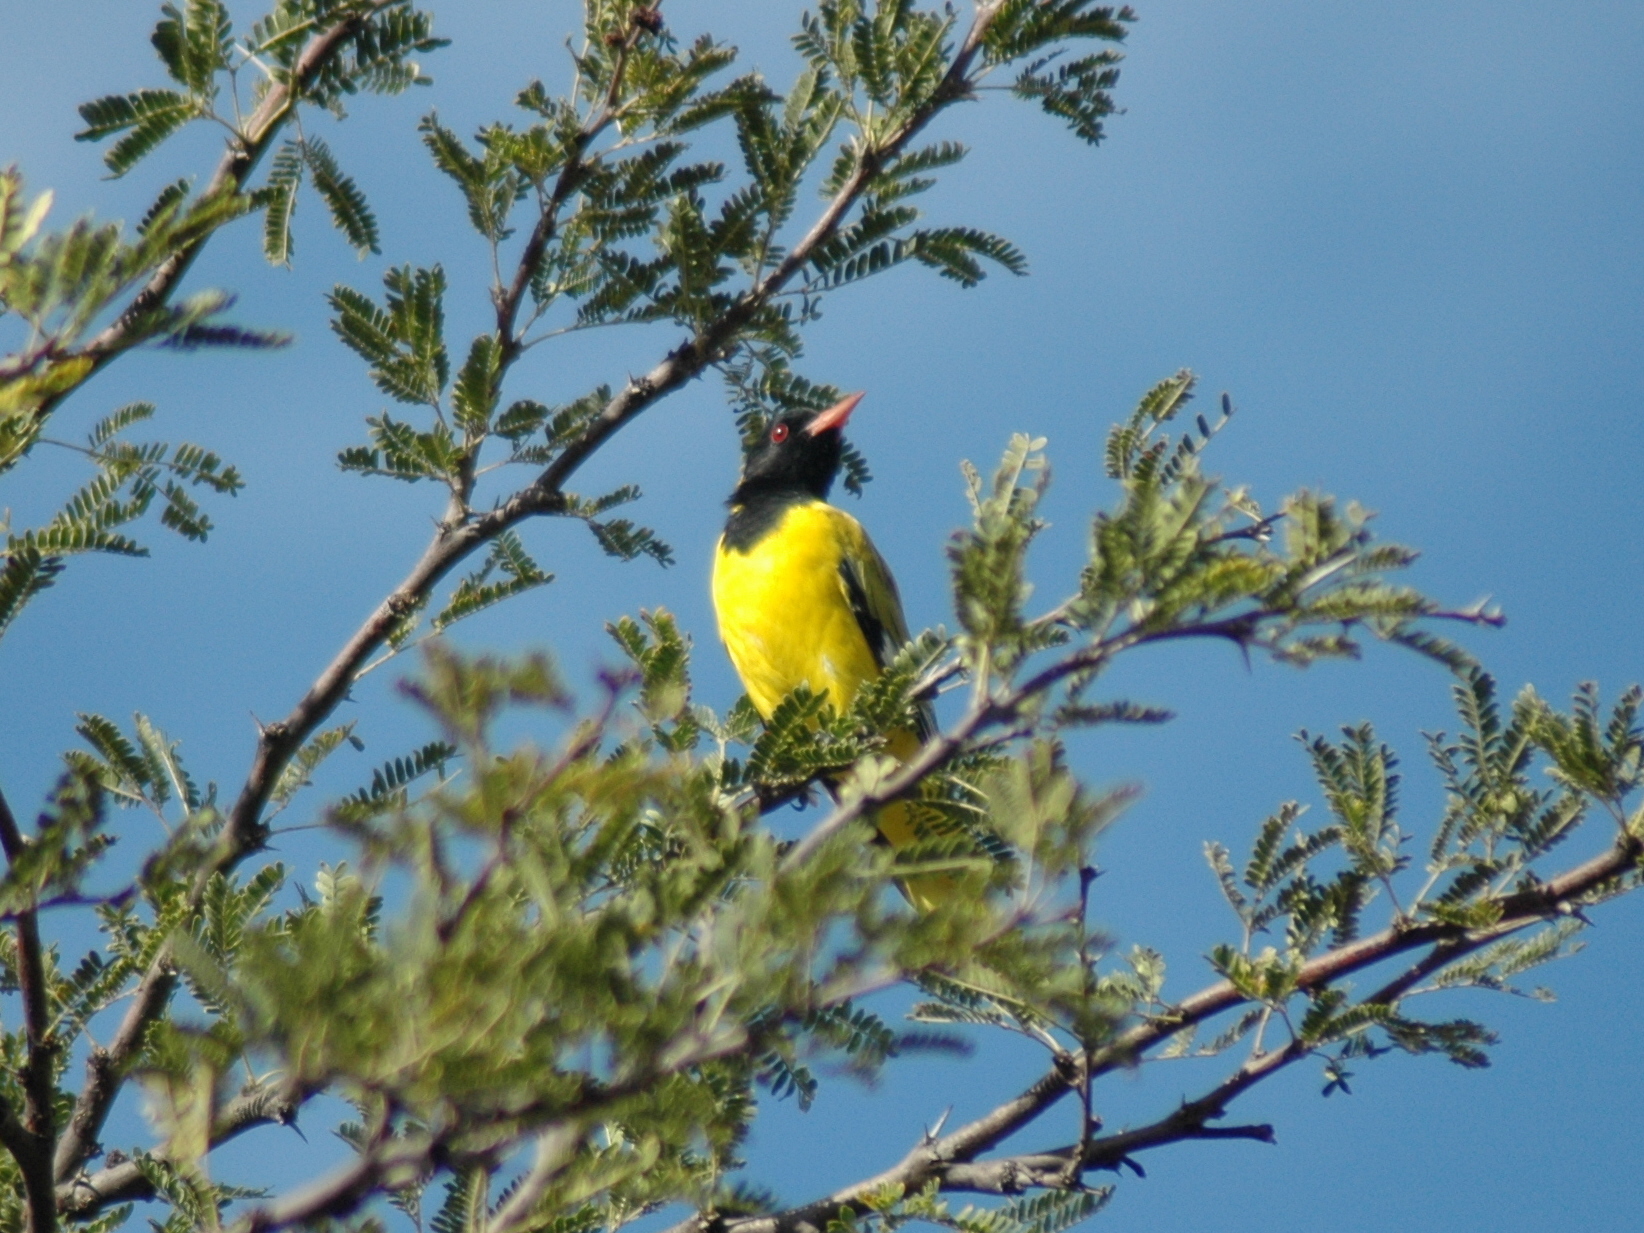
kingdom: Animalia
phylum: Chordata
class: Aves
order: Passeriformes
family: Oriolidae
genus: Oriolus
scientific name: Oriolus larvatus
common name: Black-headed oriole
